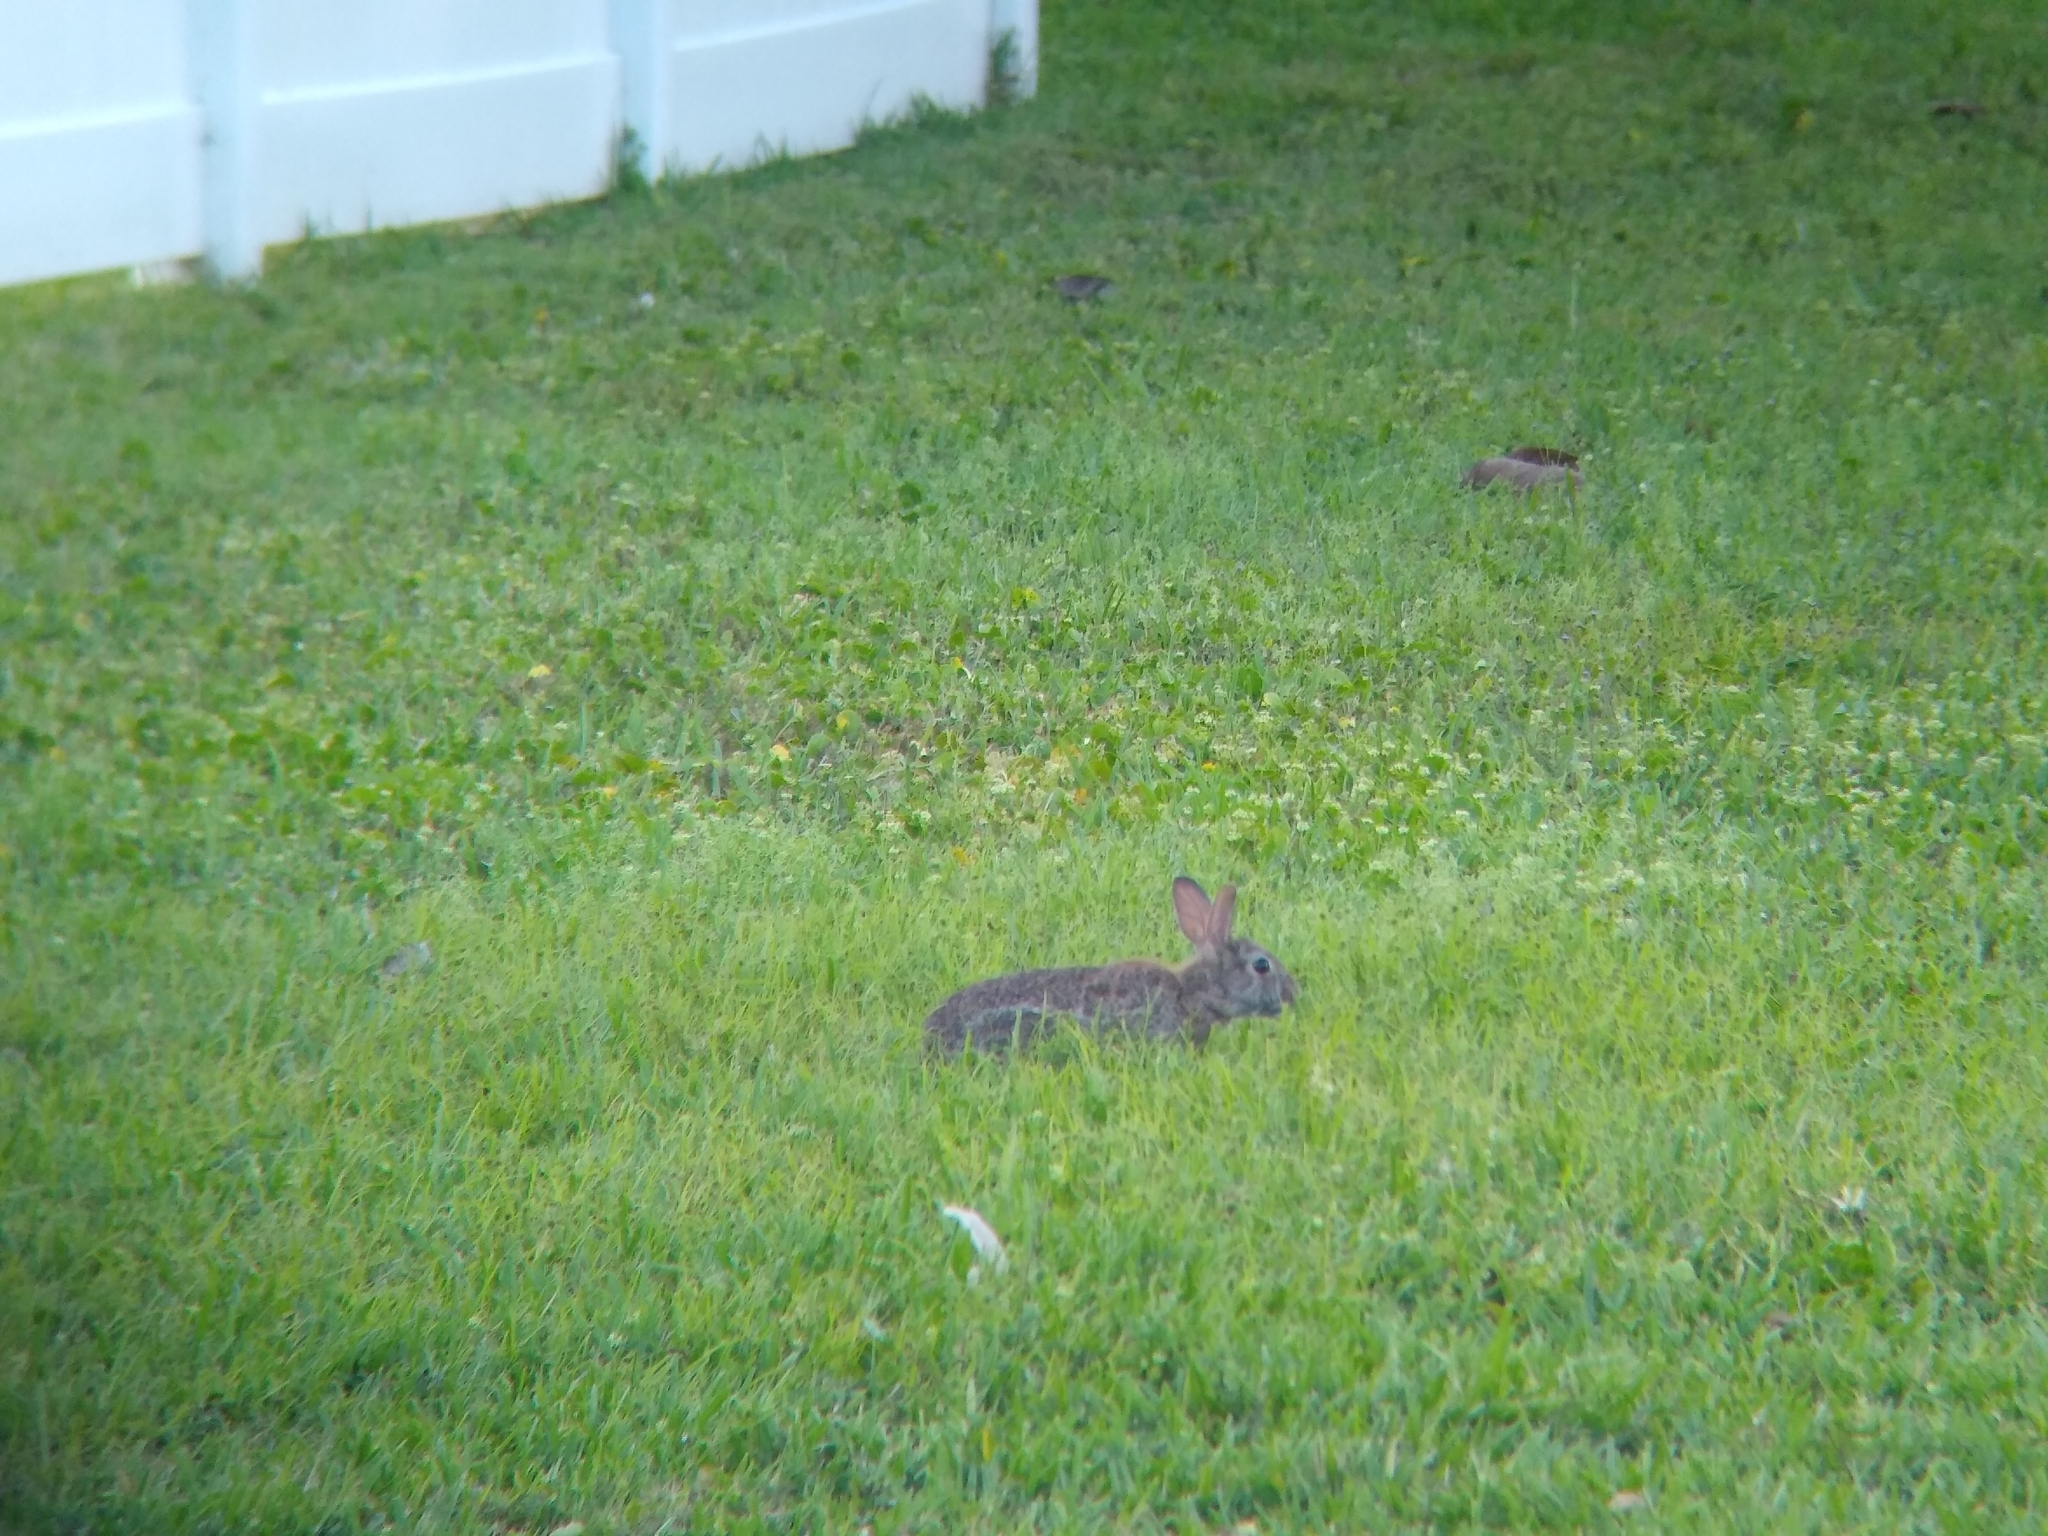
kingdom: Animalia
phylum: Chordata
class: Mammalia
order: Lagomorpha
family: Leporidae
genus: Sylvilagus
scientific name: Sylvilagus floridanus
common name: Eastern cottontail
